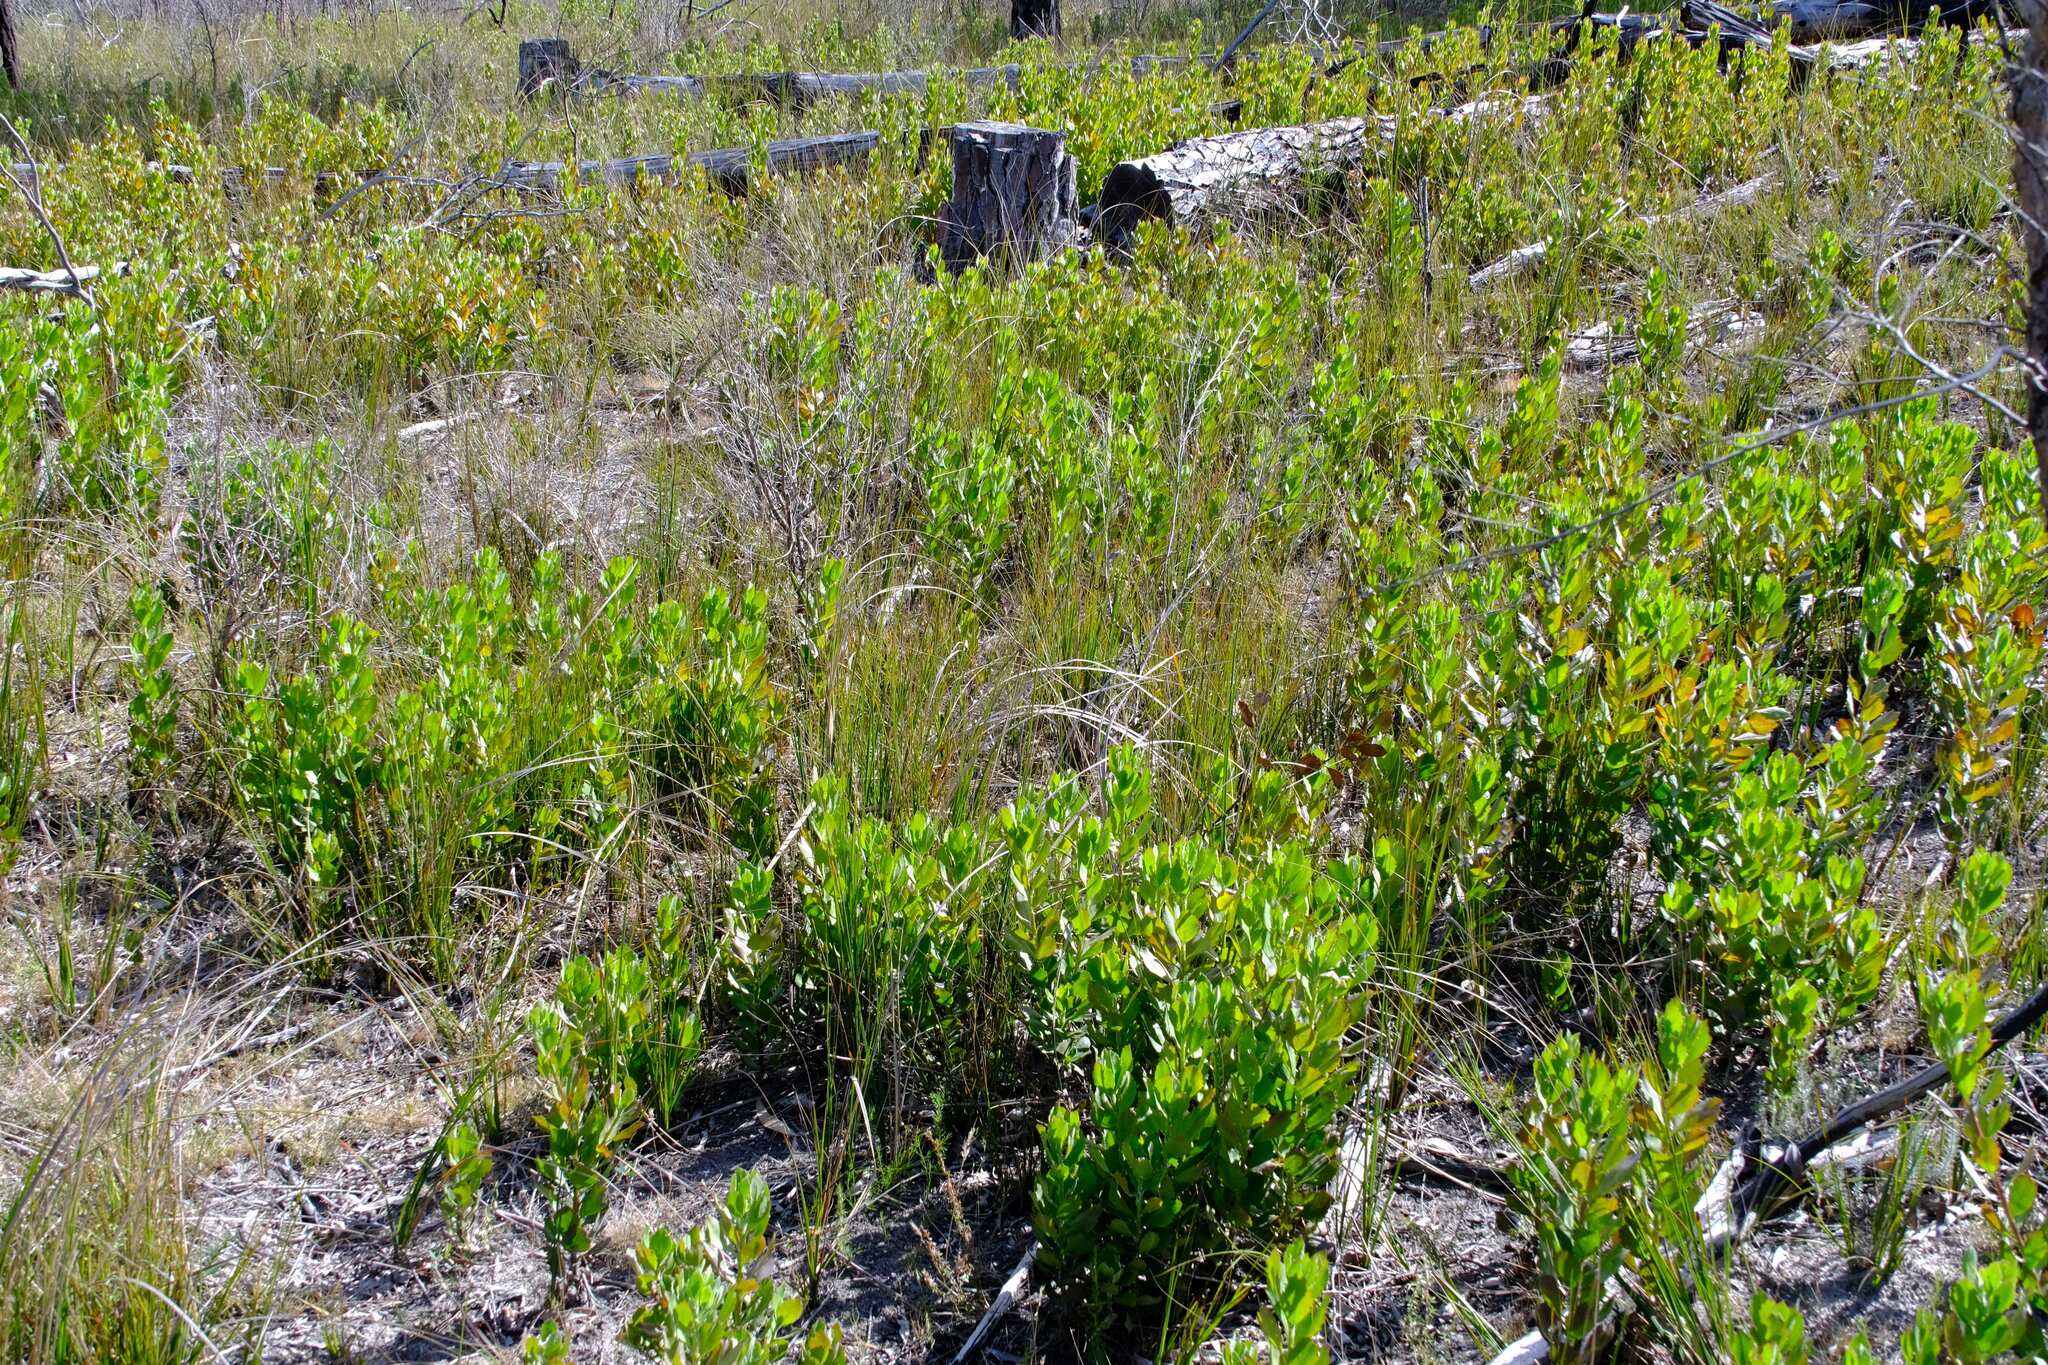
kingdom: Plantae
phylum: Tracheophyta
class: Magnoliopsida
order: Asterales
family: Asteraceae
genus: Osteospermum
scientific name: Osteospermum moniliferum
